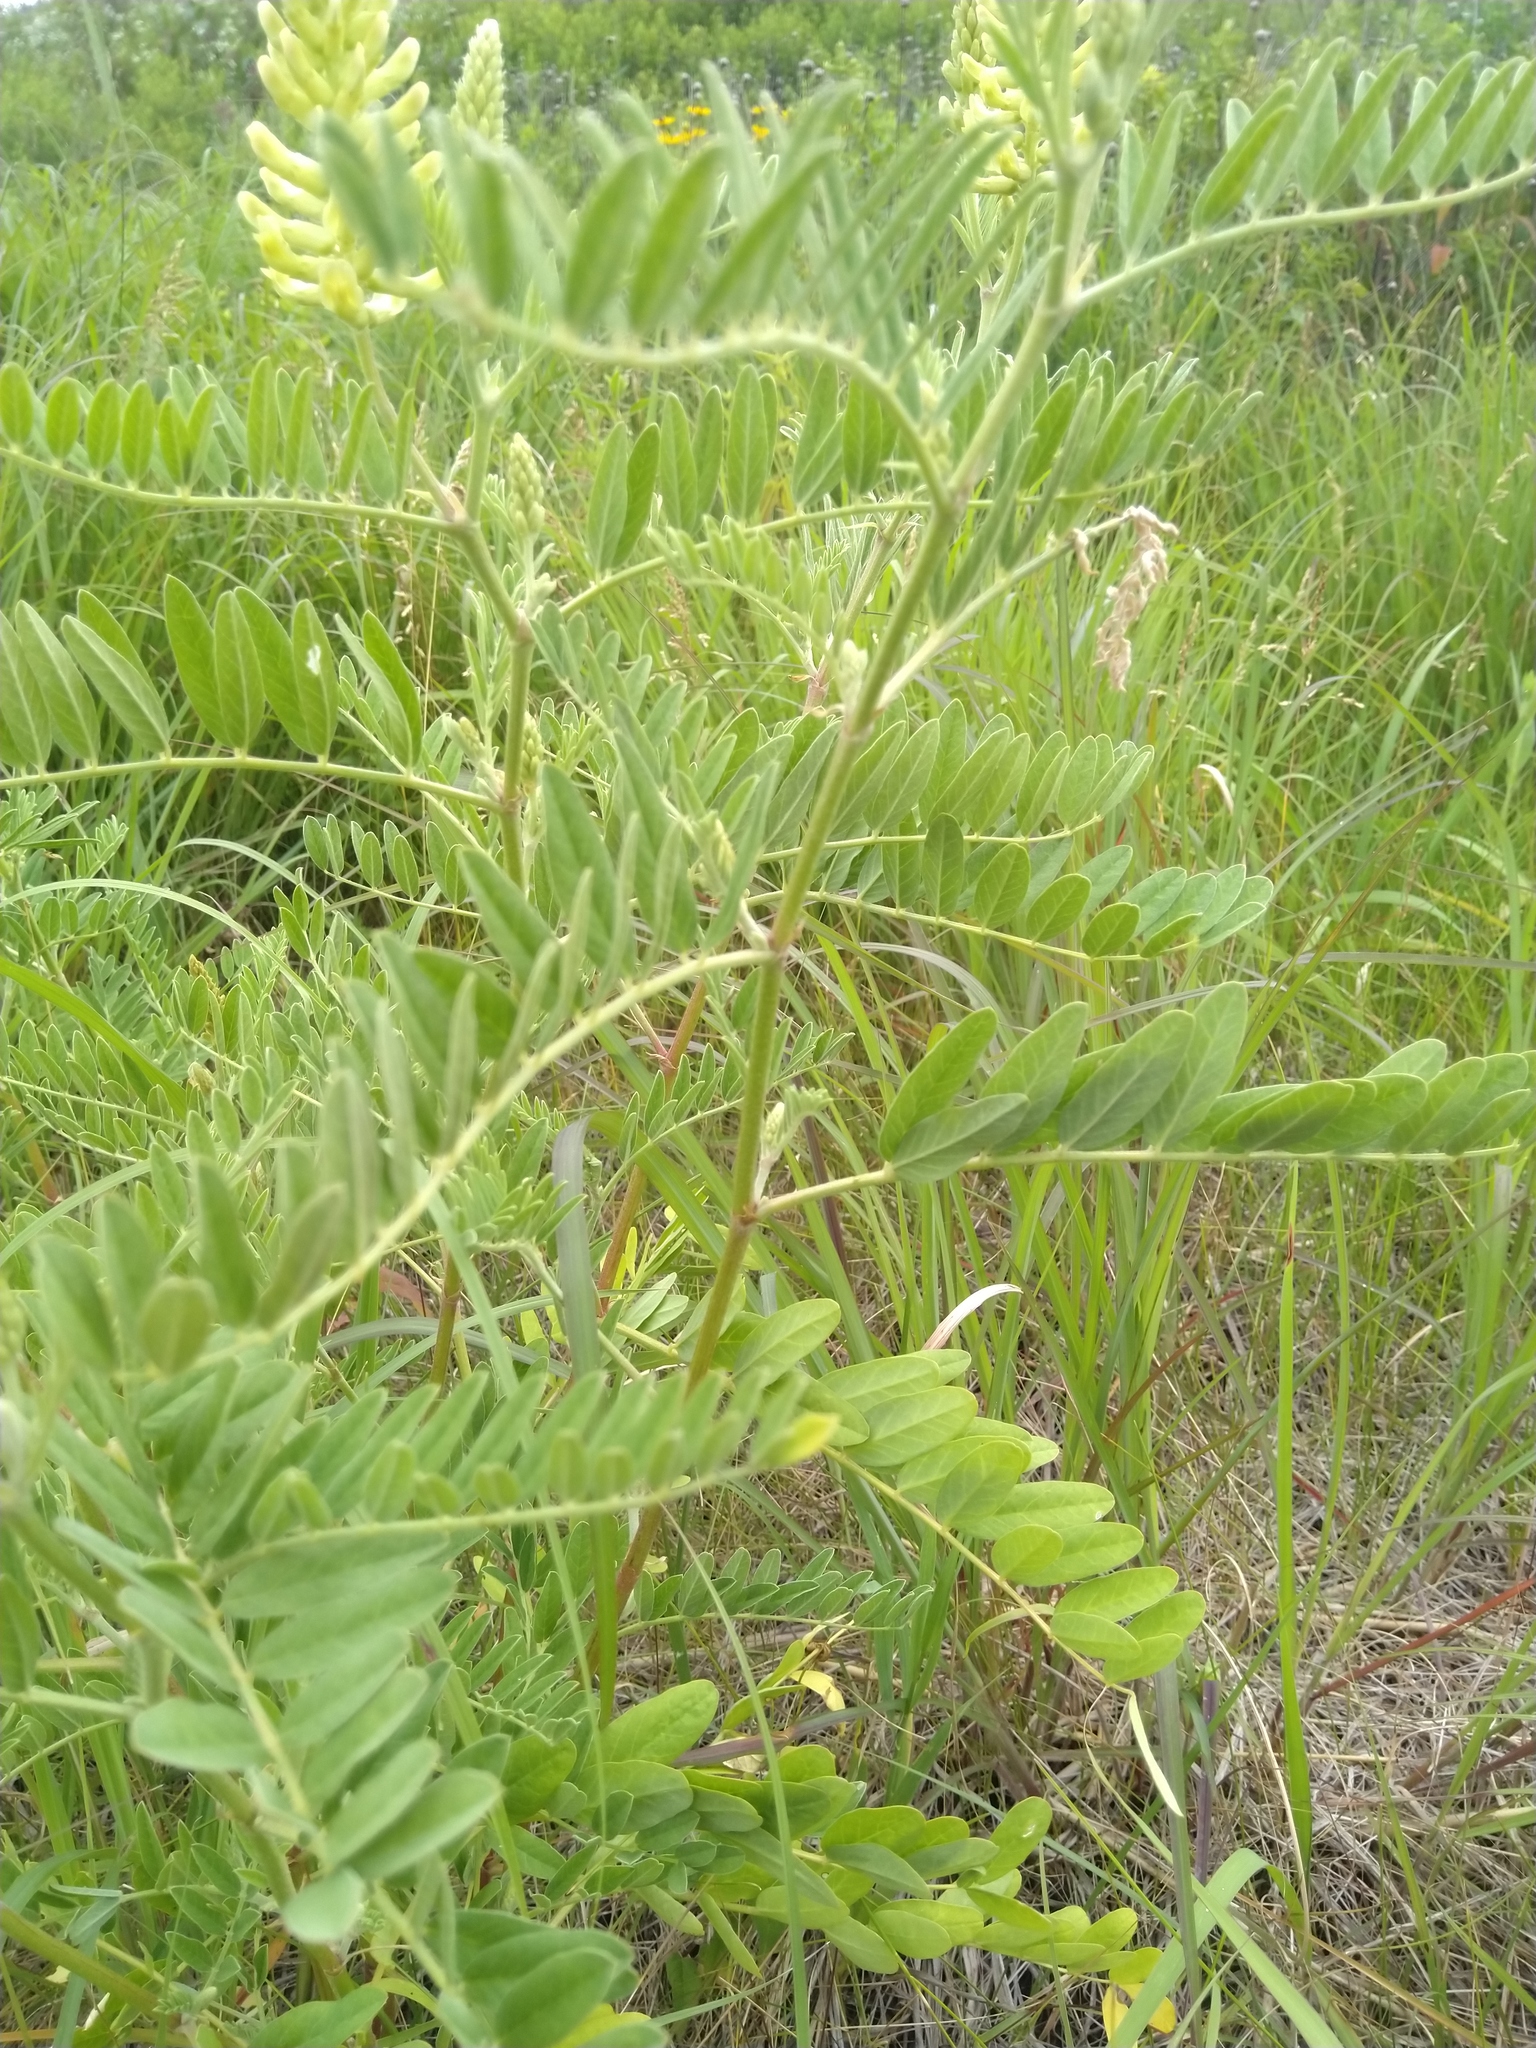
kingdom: Plantae
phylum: Tracheophyta
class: Magnoliopsida
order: Fabales
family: Fabaceae
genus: Astragalus
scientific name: Astragalus canadensis
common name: Canada milk-vetch
